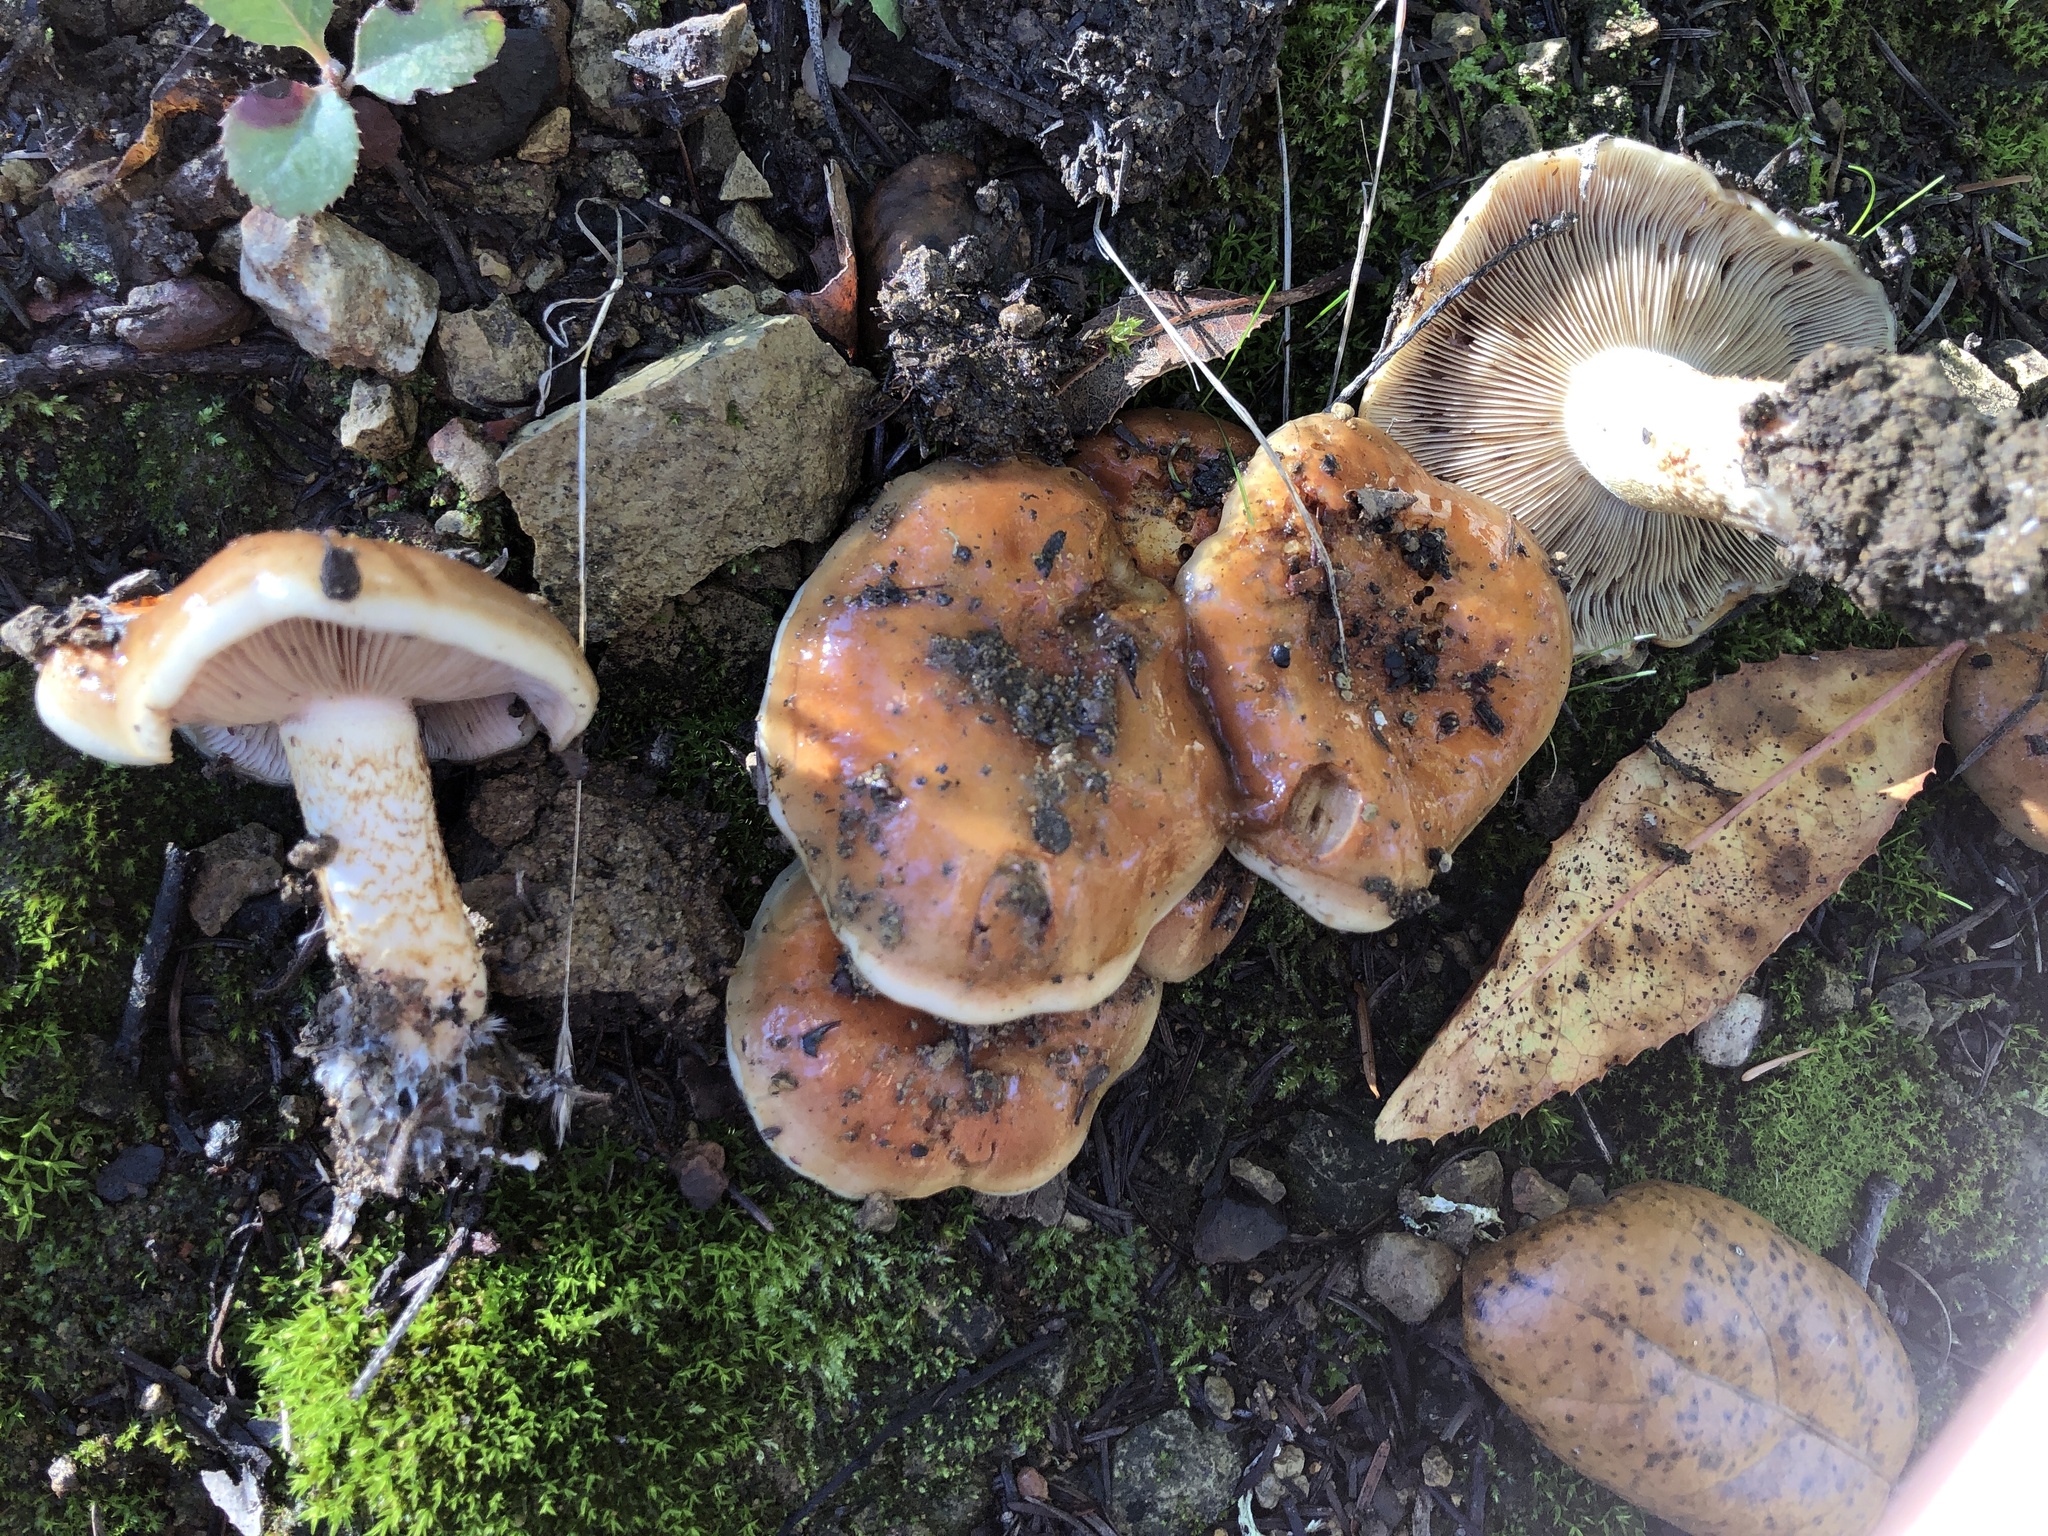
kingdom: Fungi
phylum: Basidiomycota
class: Agaricomycetes
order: Agaricales
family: Strophariaceae
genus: Pholiota
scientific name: Pholiota velaglutinosa
